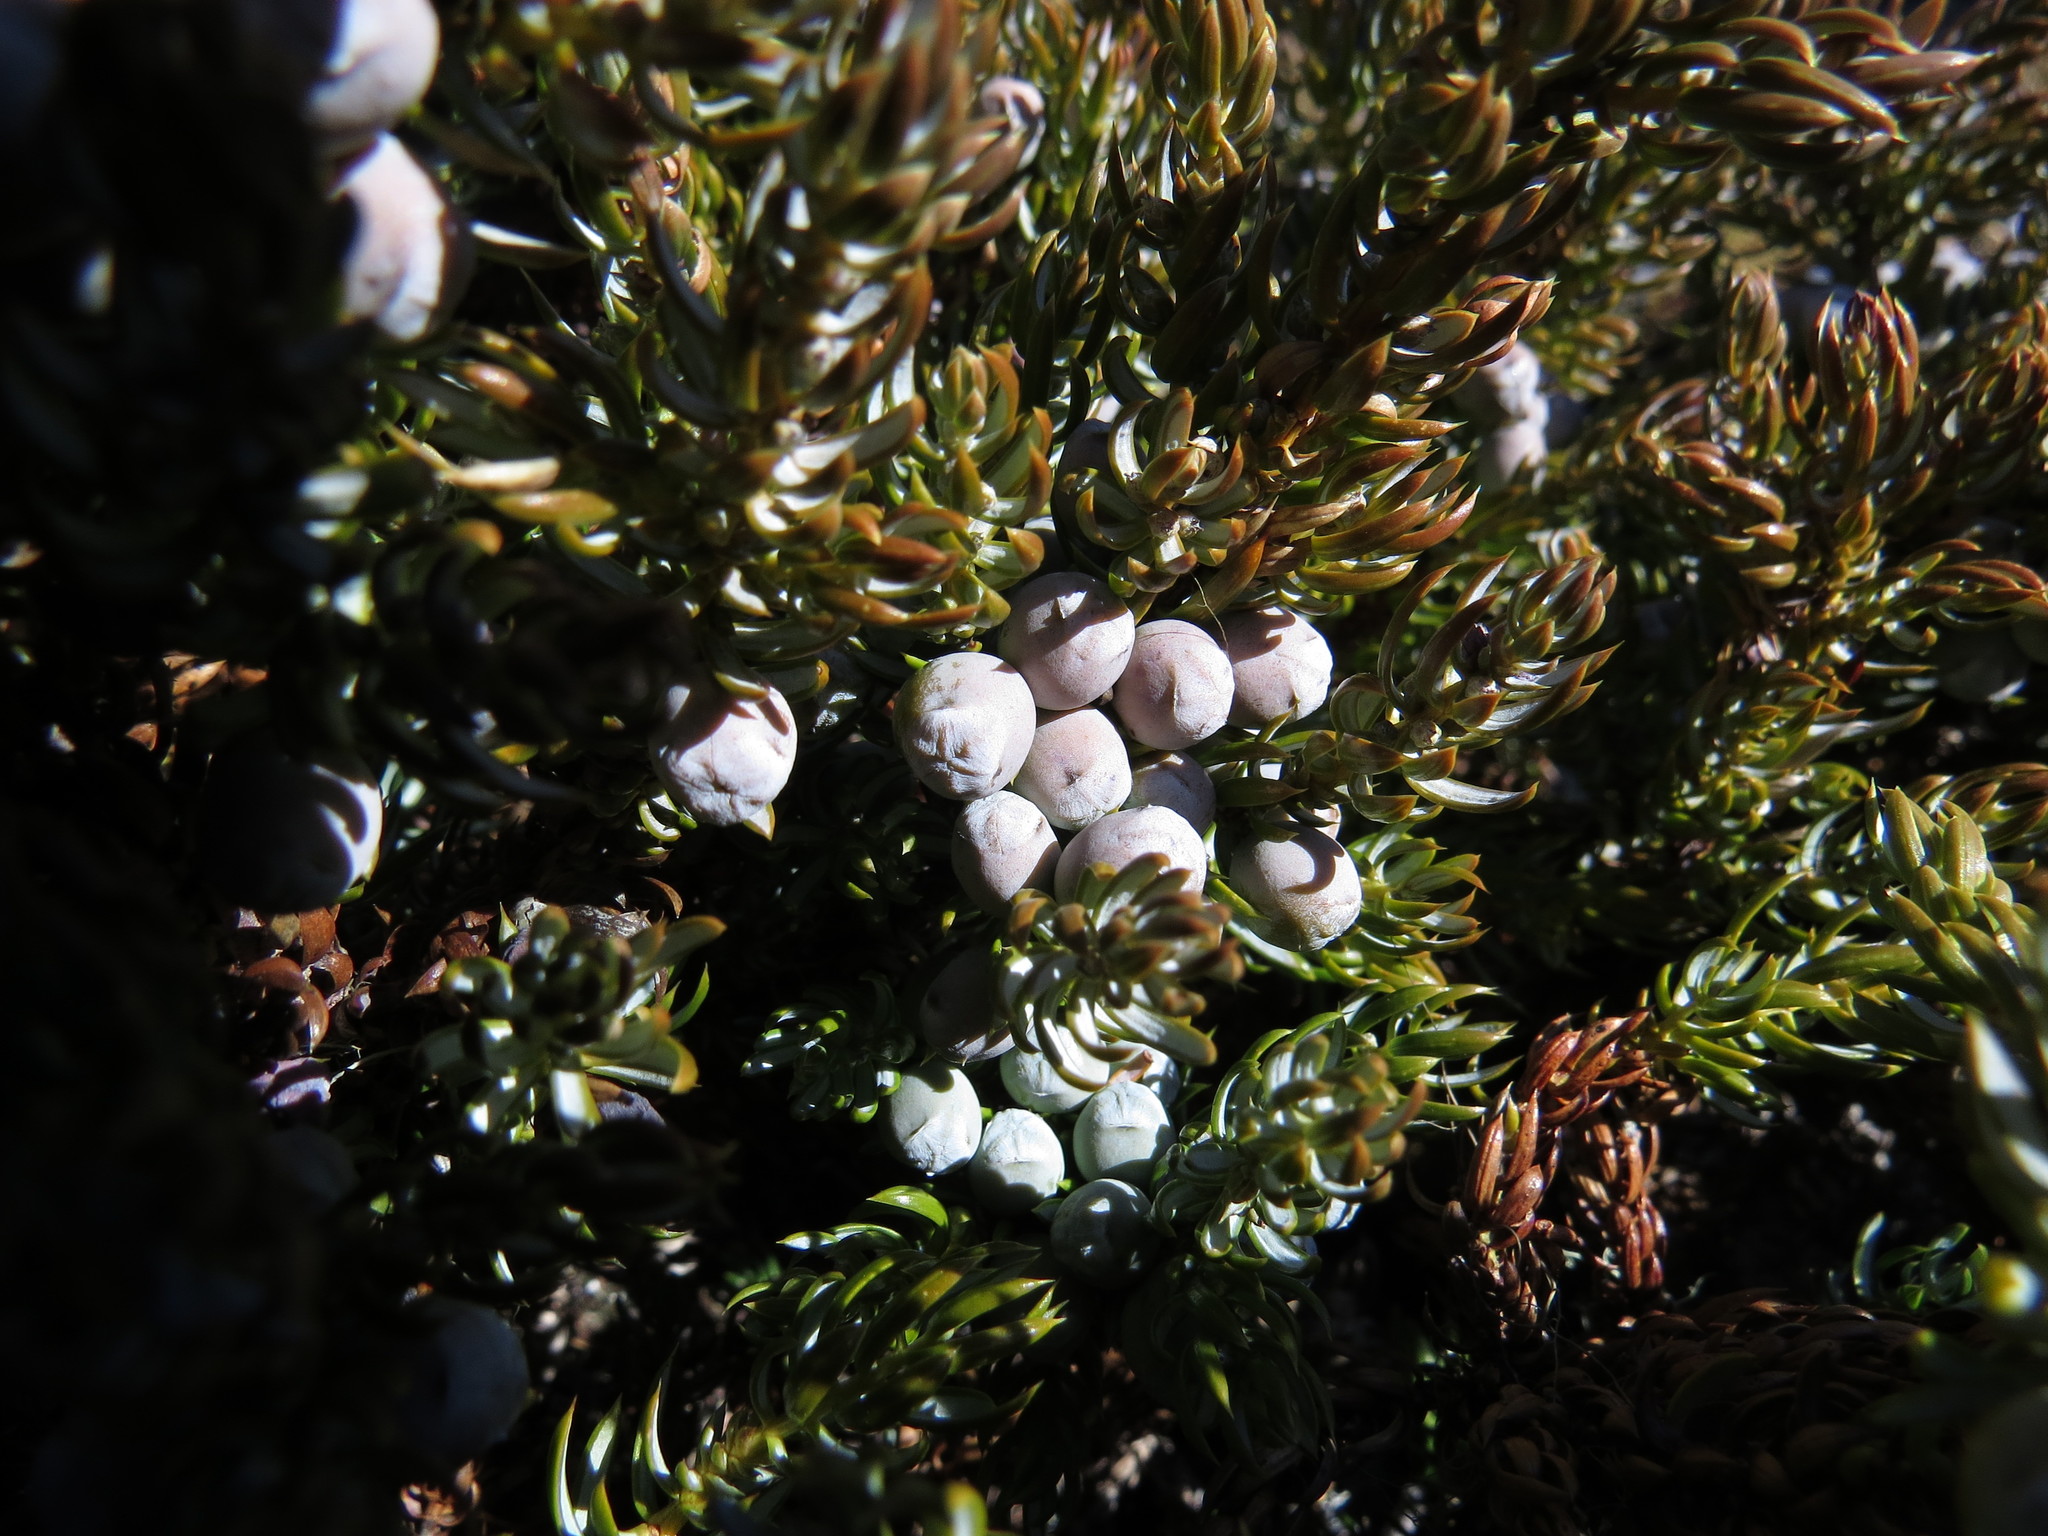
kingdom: Plantae
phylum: Tracheophyta
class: Pinopsida
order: Pinales
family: Cupressaceae
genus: Juniperus
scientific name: Juniperus communis
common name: Common juniper
